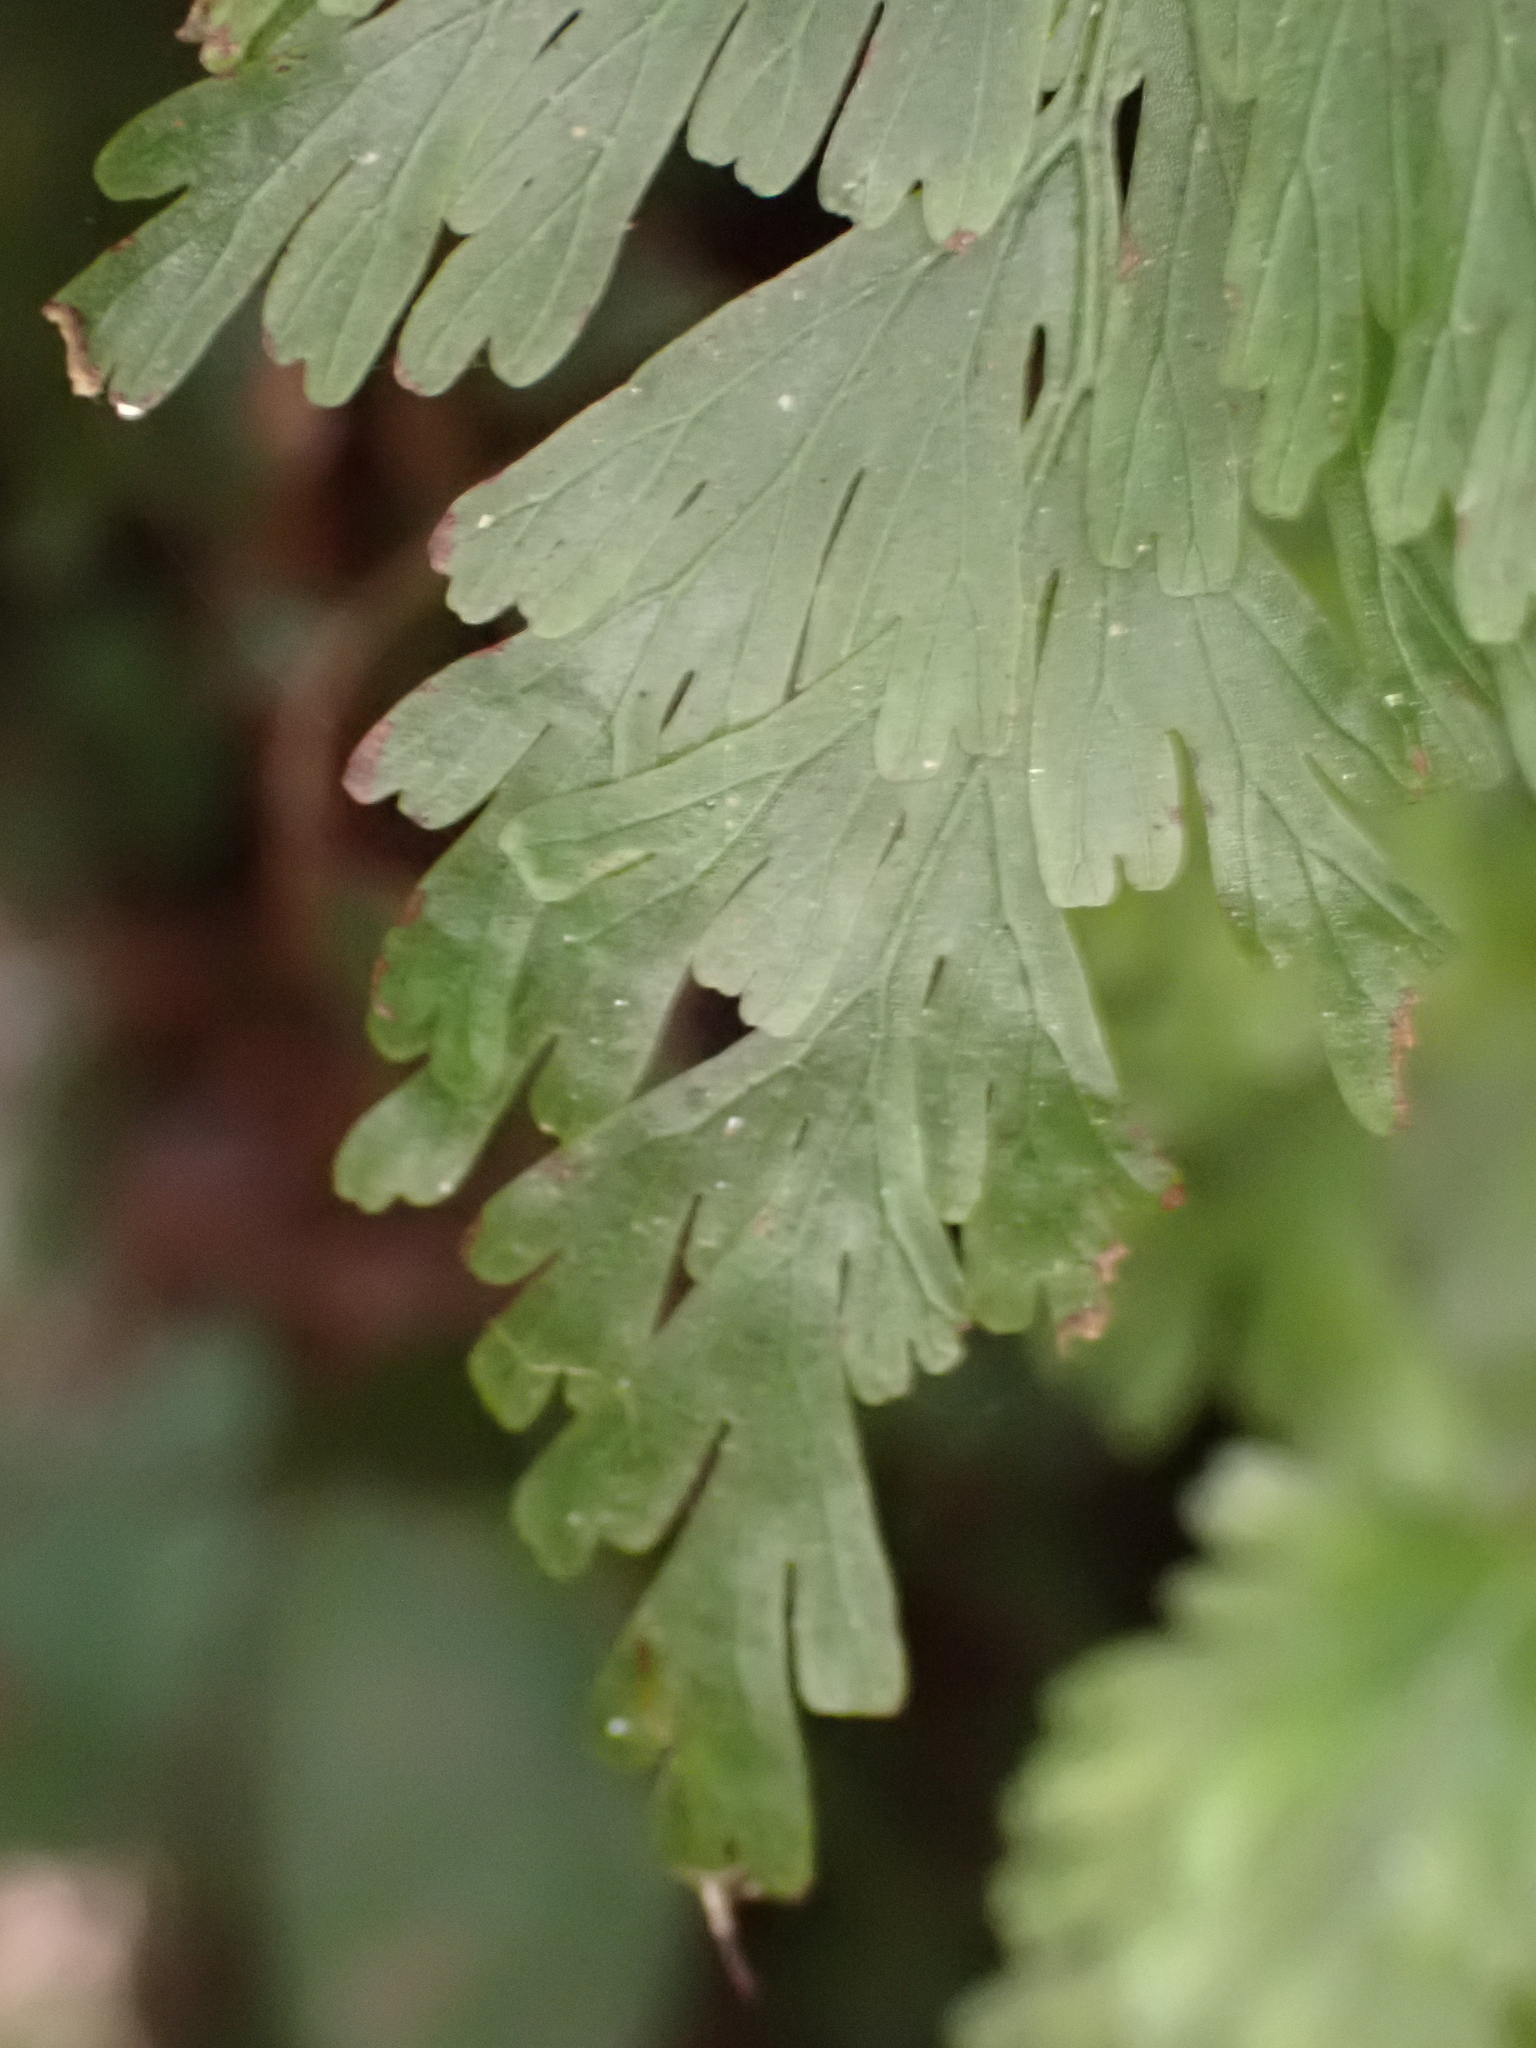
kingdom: Plantae
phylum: Tracheophyta
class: Polypodiopsida
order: Hymenophyllales
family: Hymenophyllaceae
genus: Hymenophyllum
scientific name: Hymenophyllum dilatatum
